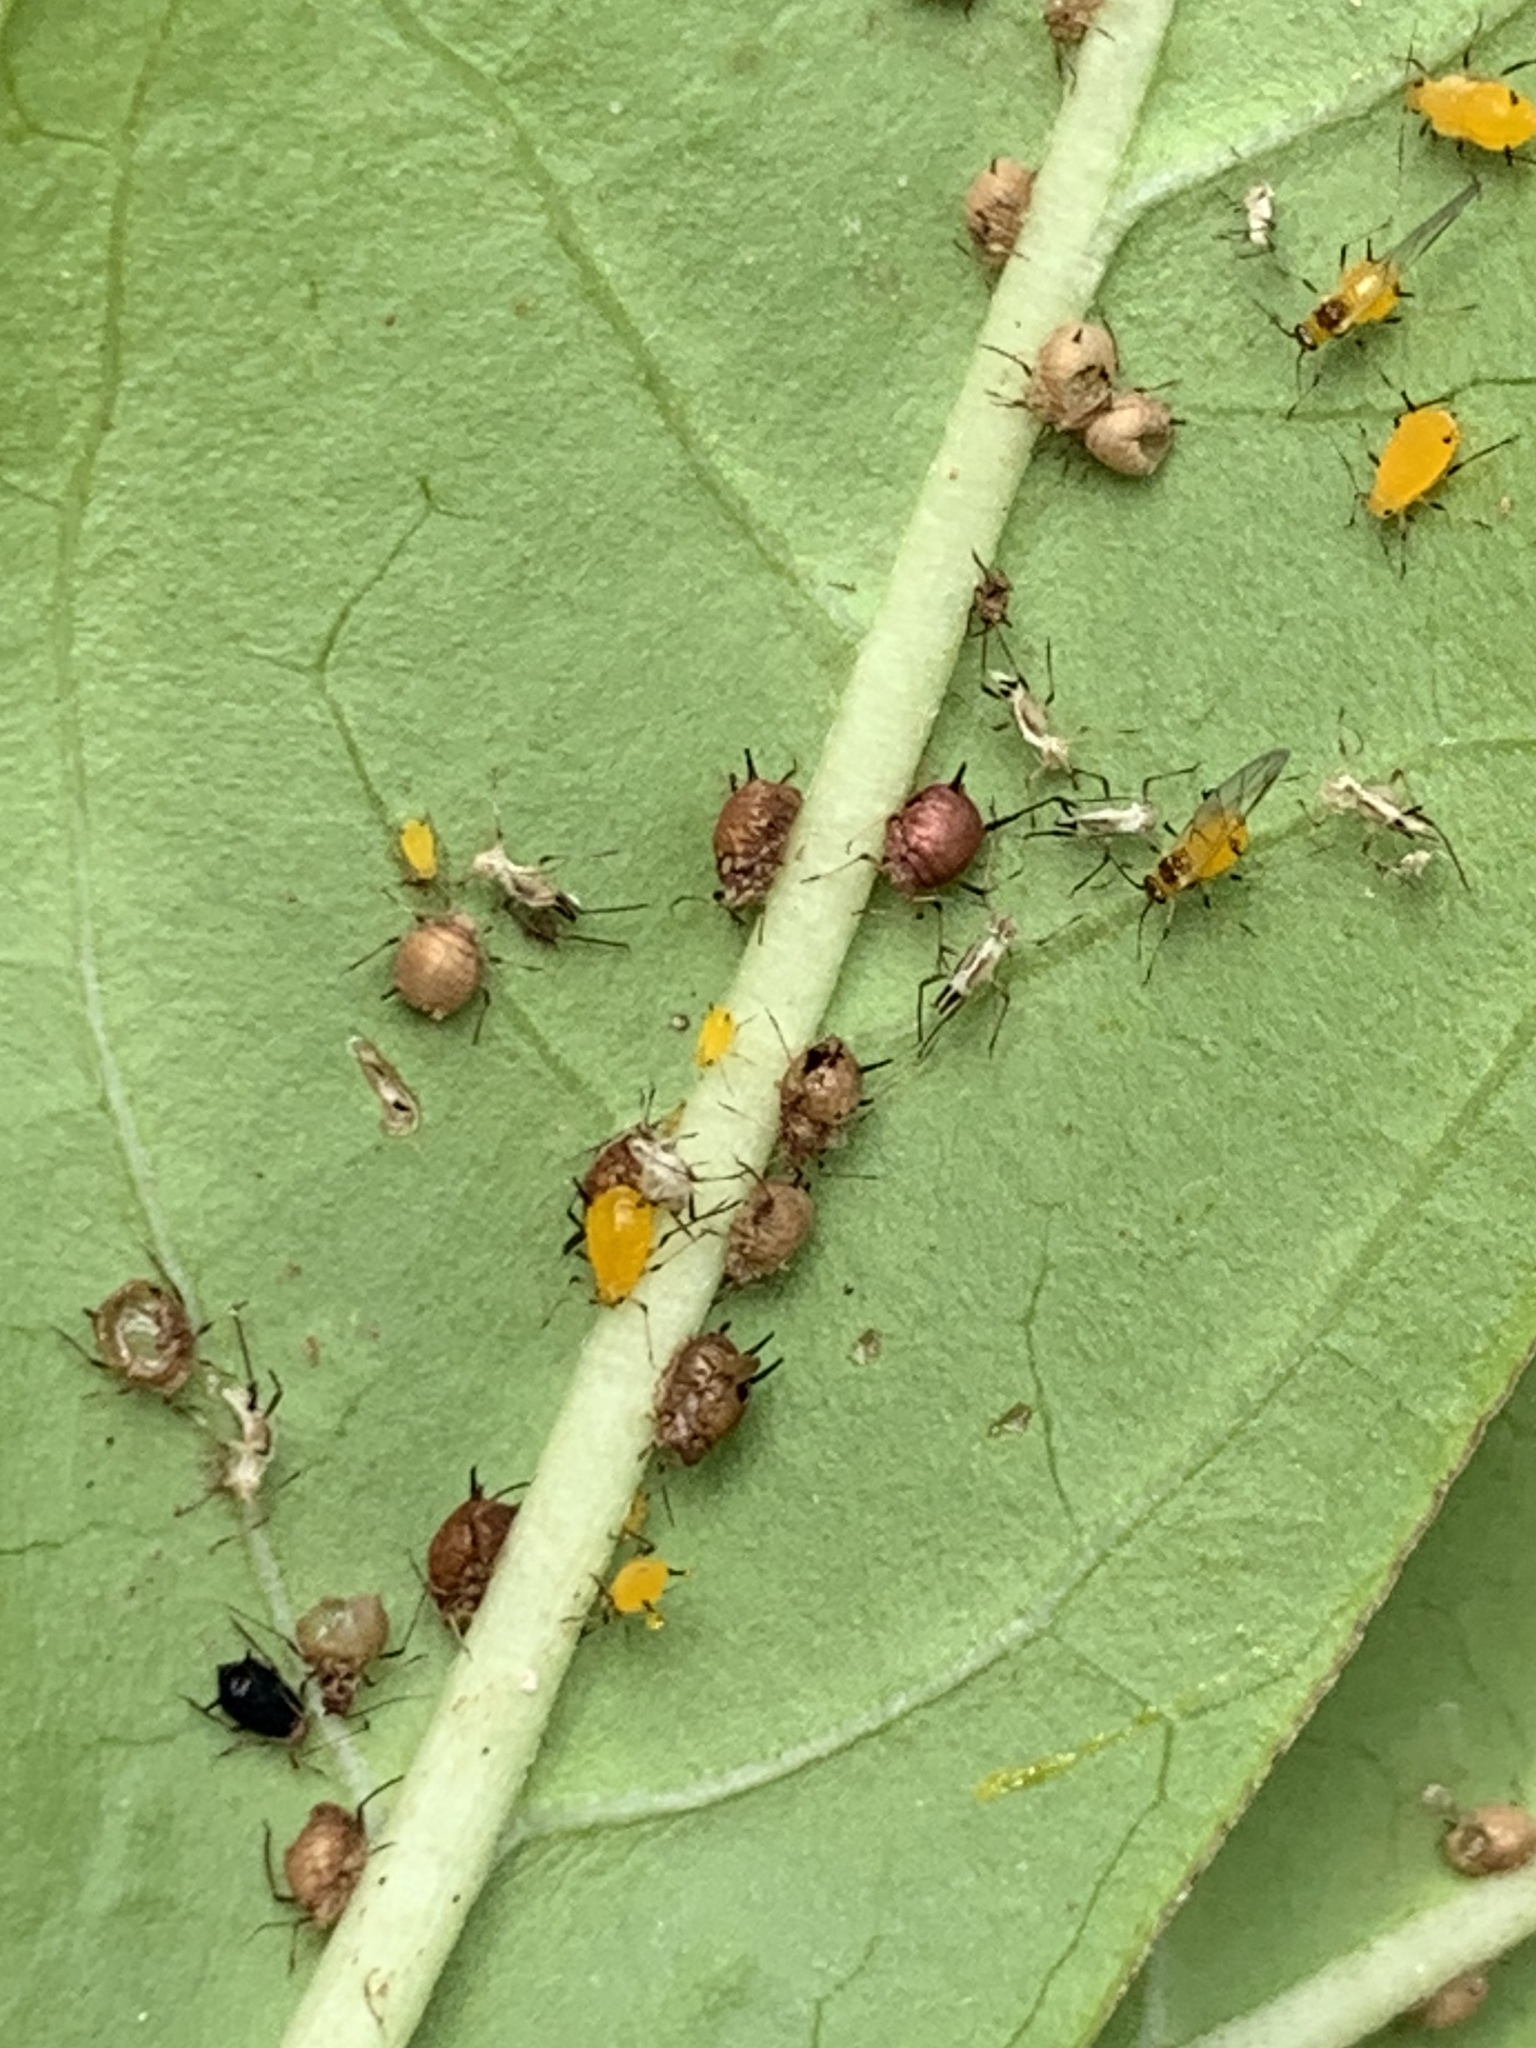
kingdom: Animalia
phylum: Arthropoda
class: Insecta
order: Hemiptera
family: Aphididae
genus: Aphis
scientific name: Aphis nerii
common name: Oleander aphid
